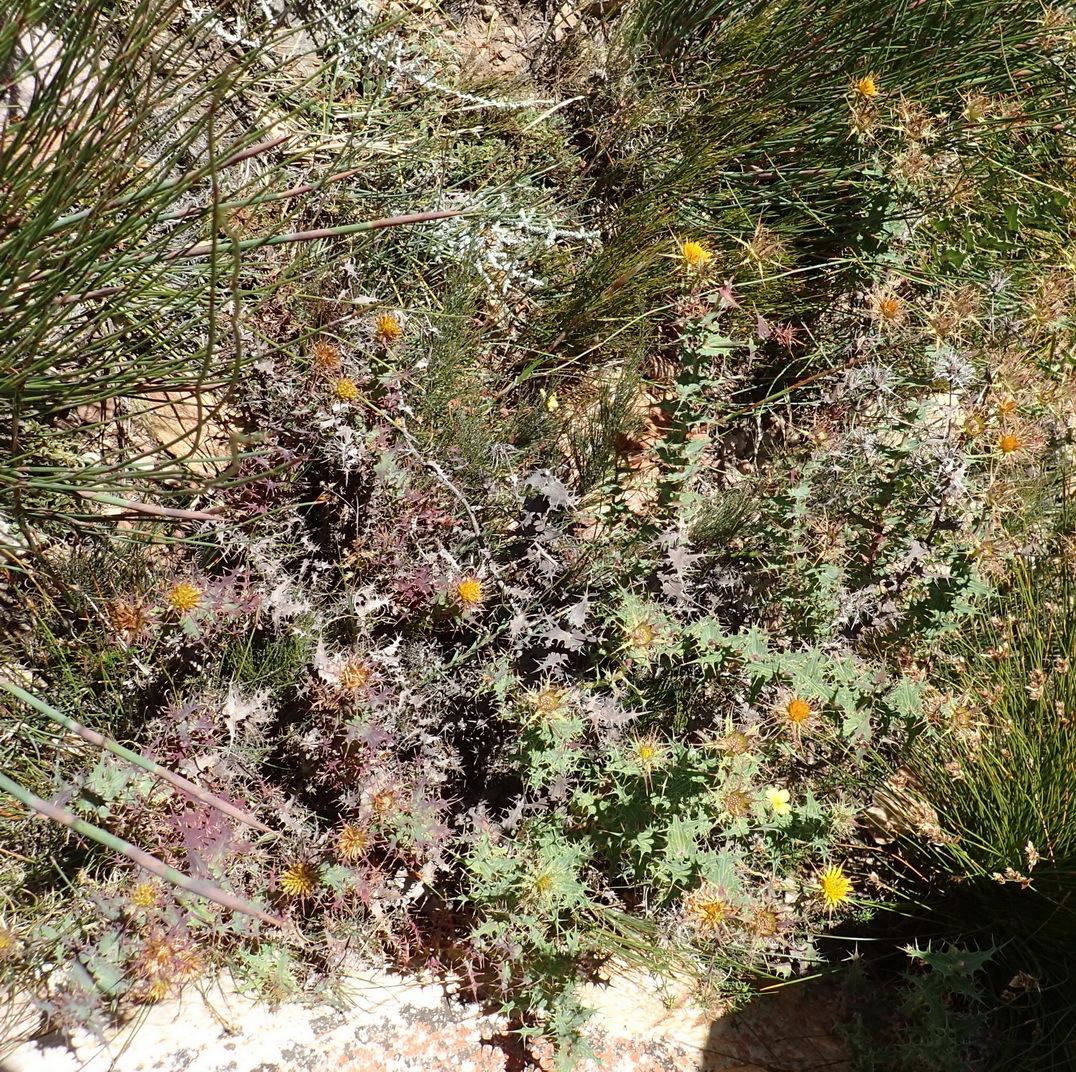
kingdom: Plantae
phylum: Tracheophyta
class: Magnoliopsida
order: Asterales
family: Asteraceae
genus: Berkheya
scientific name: Berkheya cruciata
